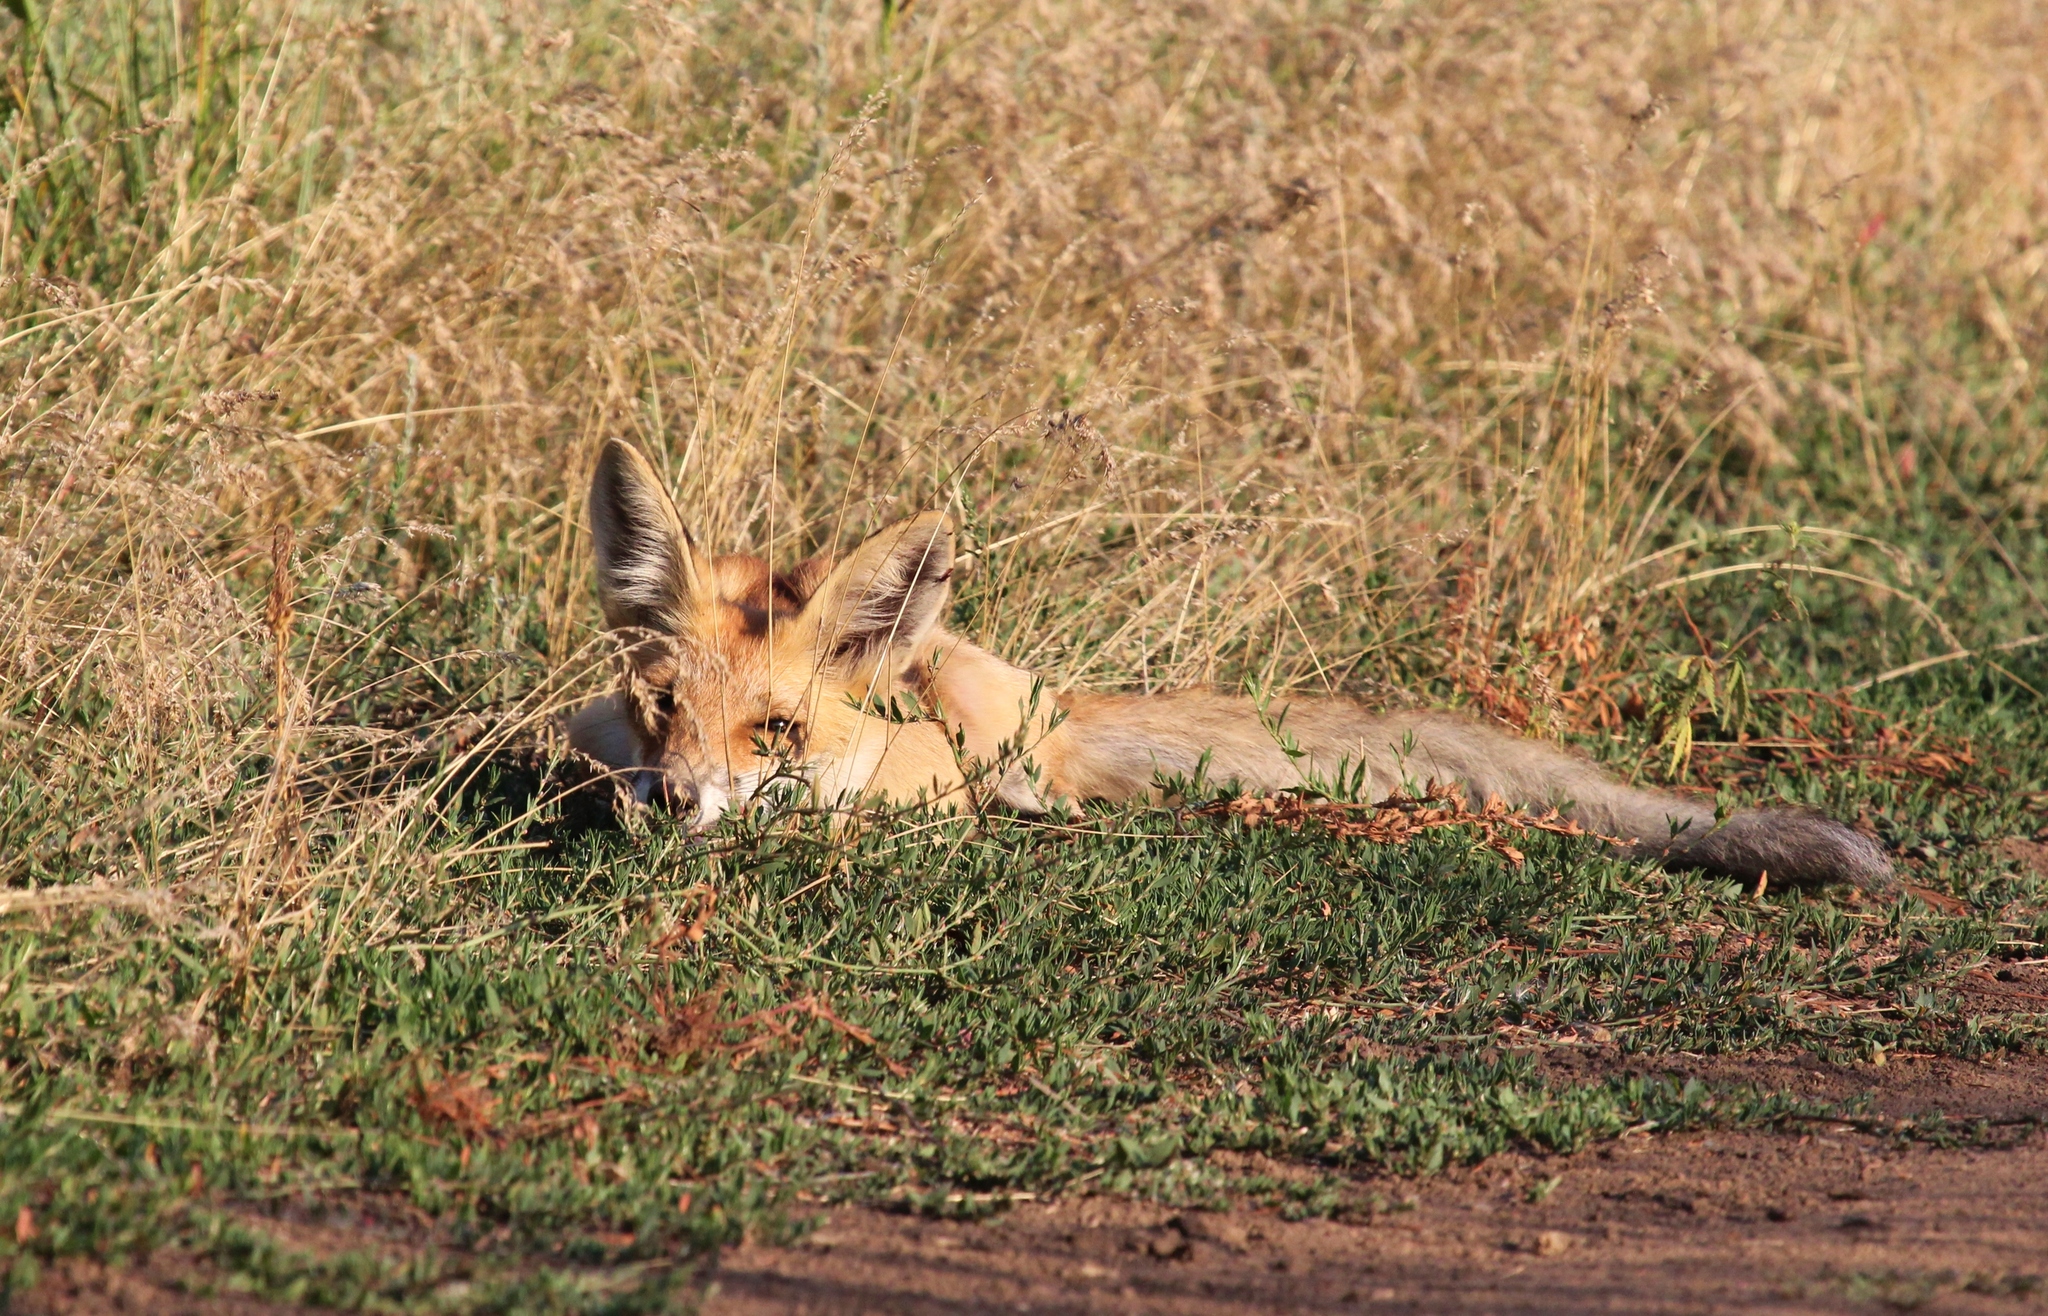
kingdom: Animalia
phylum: Chordata
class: Mammalia
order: Carnivora
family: Canidae
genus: Vulpes
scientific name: Vulpes vulpes
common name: Red fox
